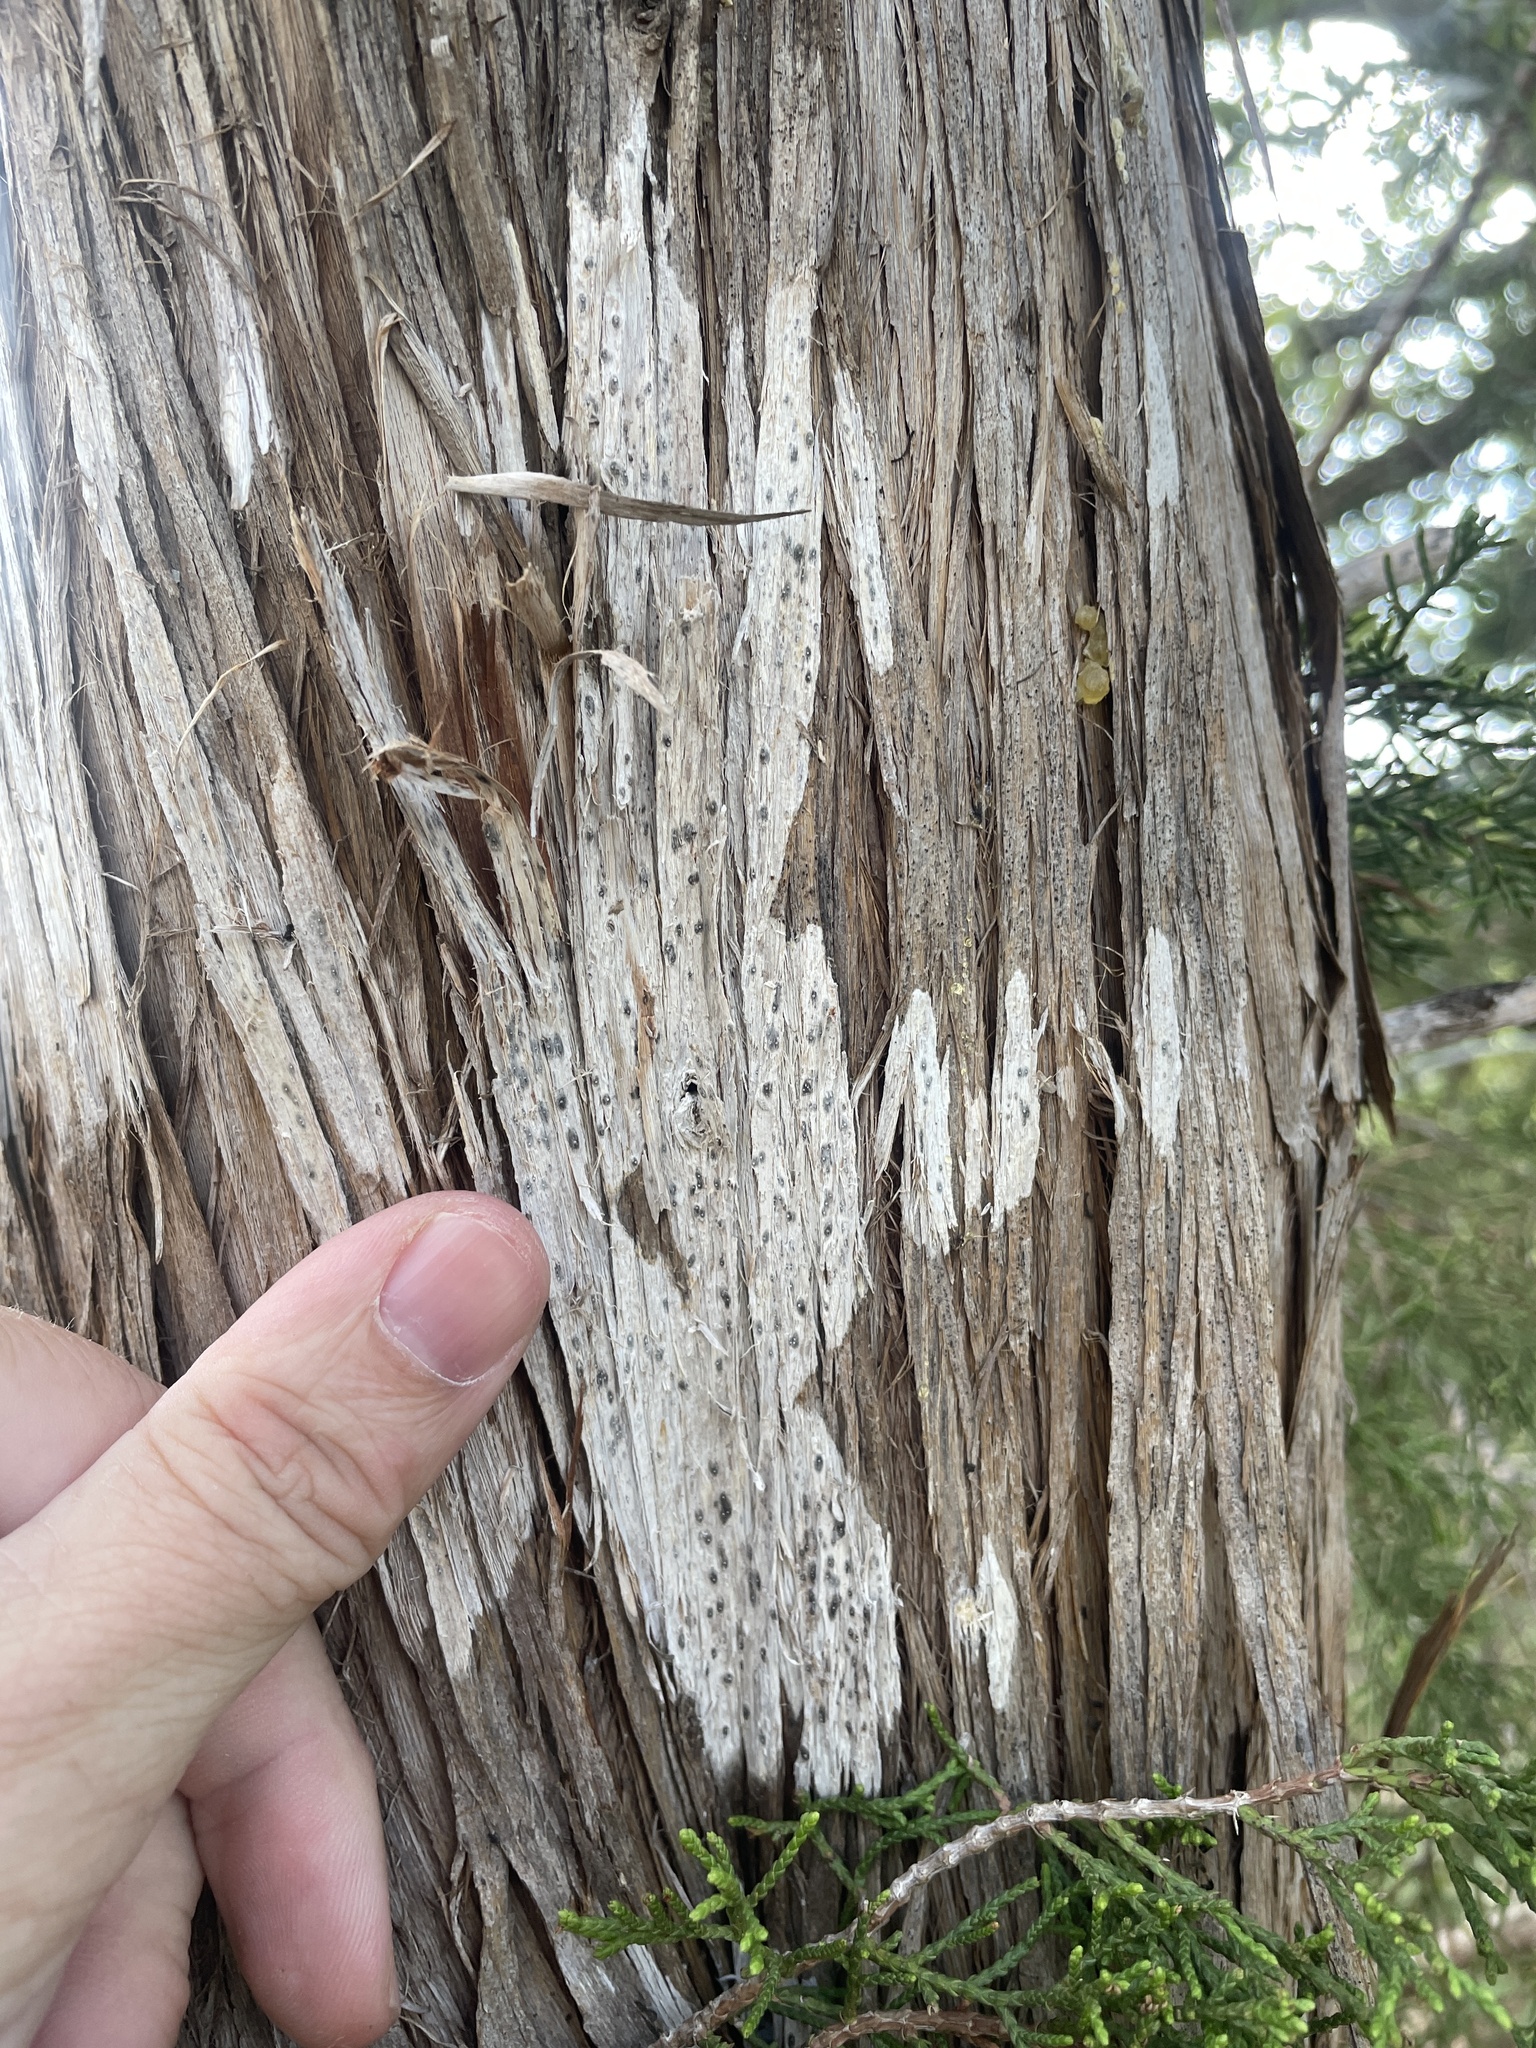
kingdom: Fungi
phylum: Ascomycota
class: Lecanoromycetes
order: Ostropales
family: Stictidaceae
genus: Robergea
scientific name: Robergea
